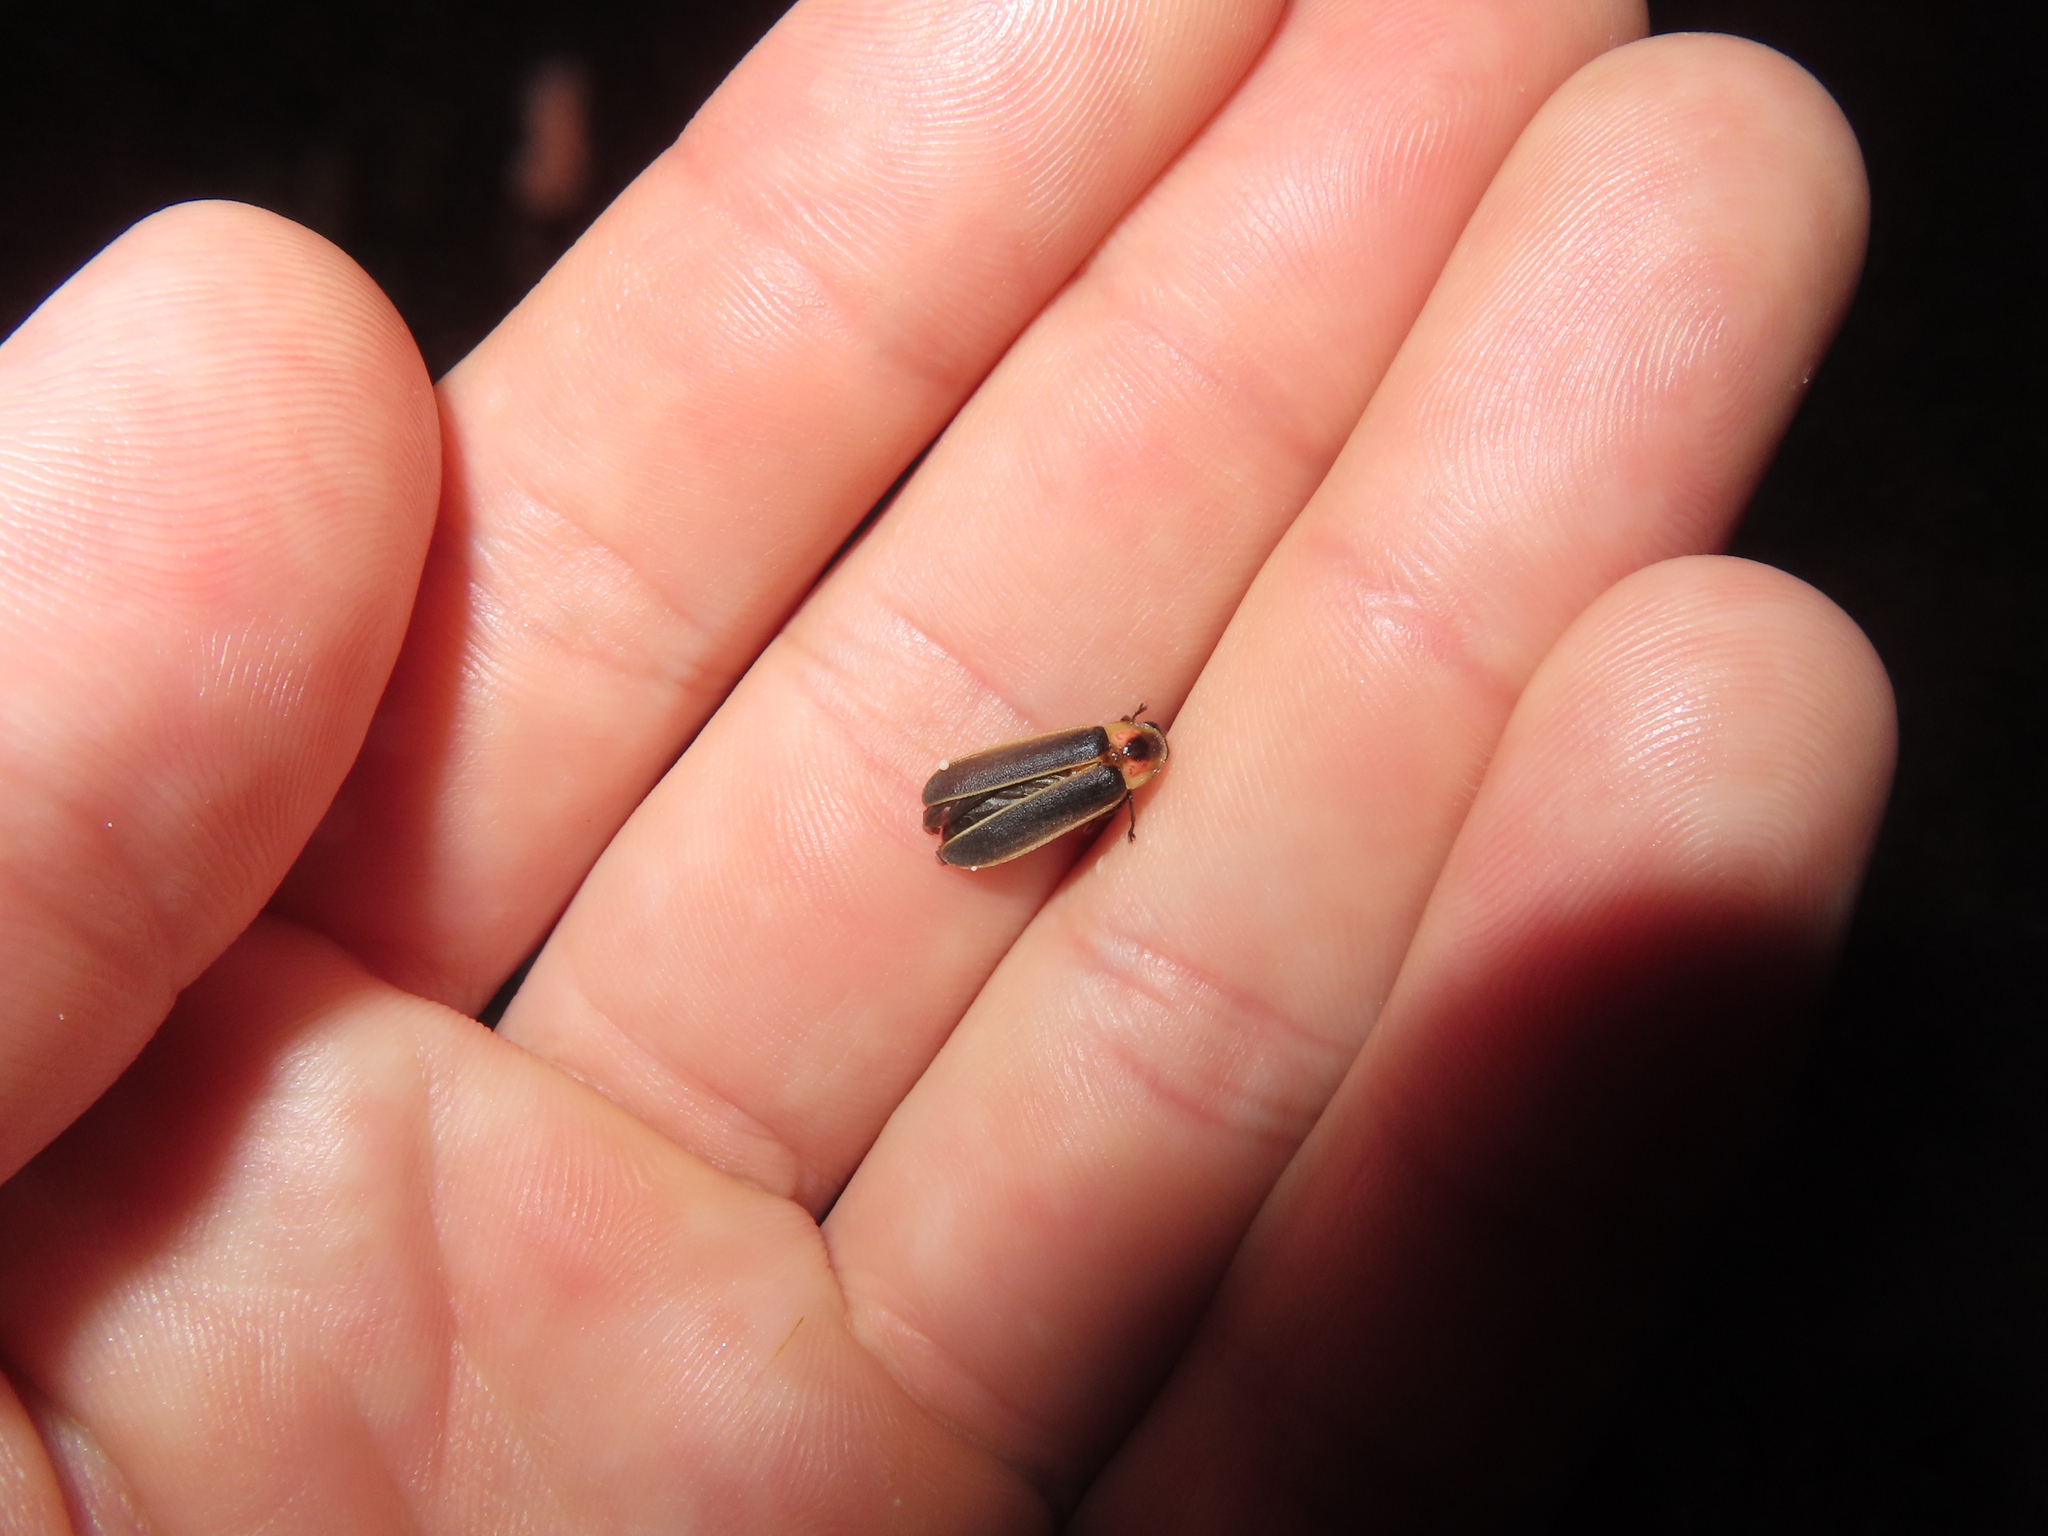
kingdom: Animalia
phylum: Arthropoda
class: Insecta
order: Coleoptera
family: Lampyridae
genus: Photinus
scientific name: Photinus pyralis
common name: Big dipper firefly
